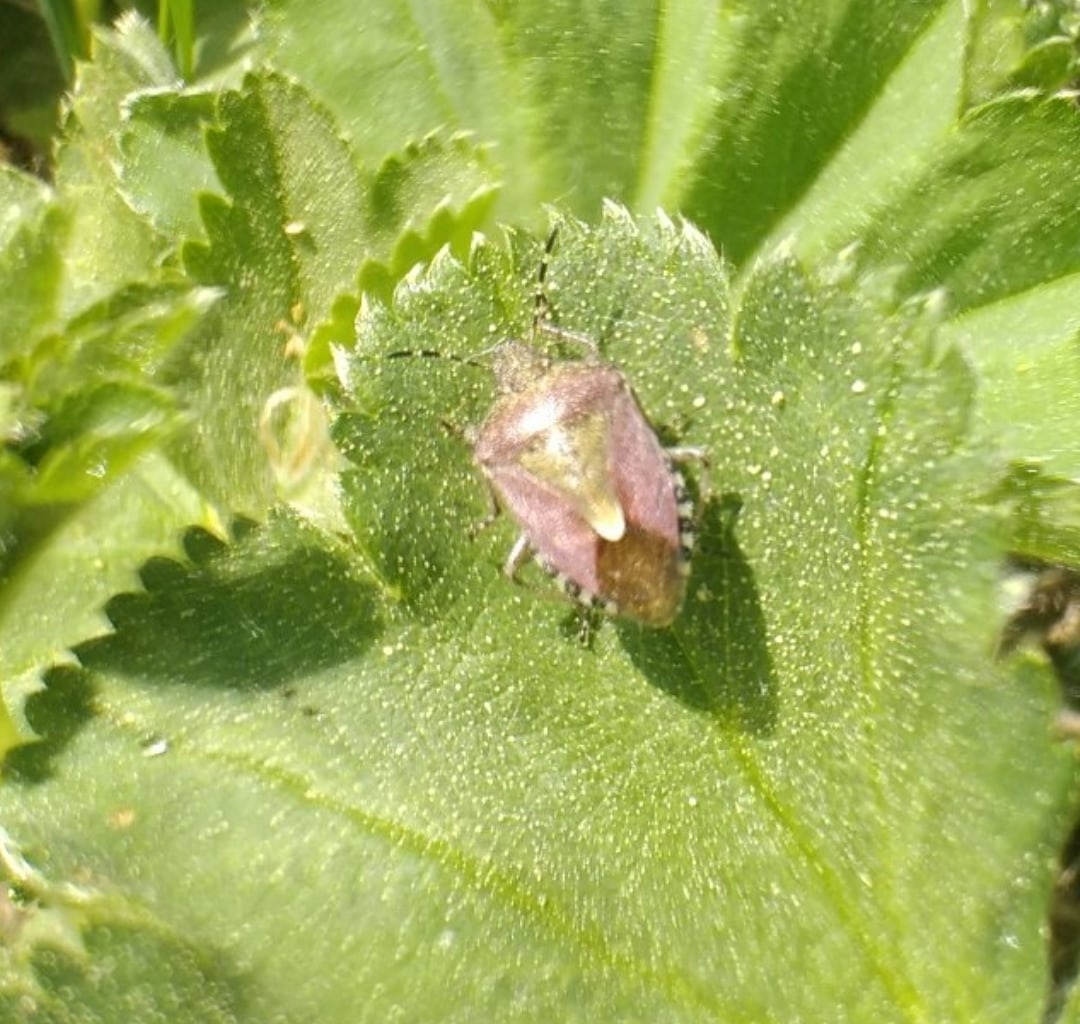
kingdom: Animalia
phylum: Arthropoda
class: Insecta
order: Hemiptera
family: Pentatomidae
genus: Dolycoris
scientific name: Dolycoris baccarum
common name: Sloe bug
